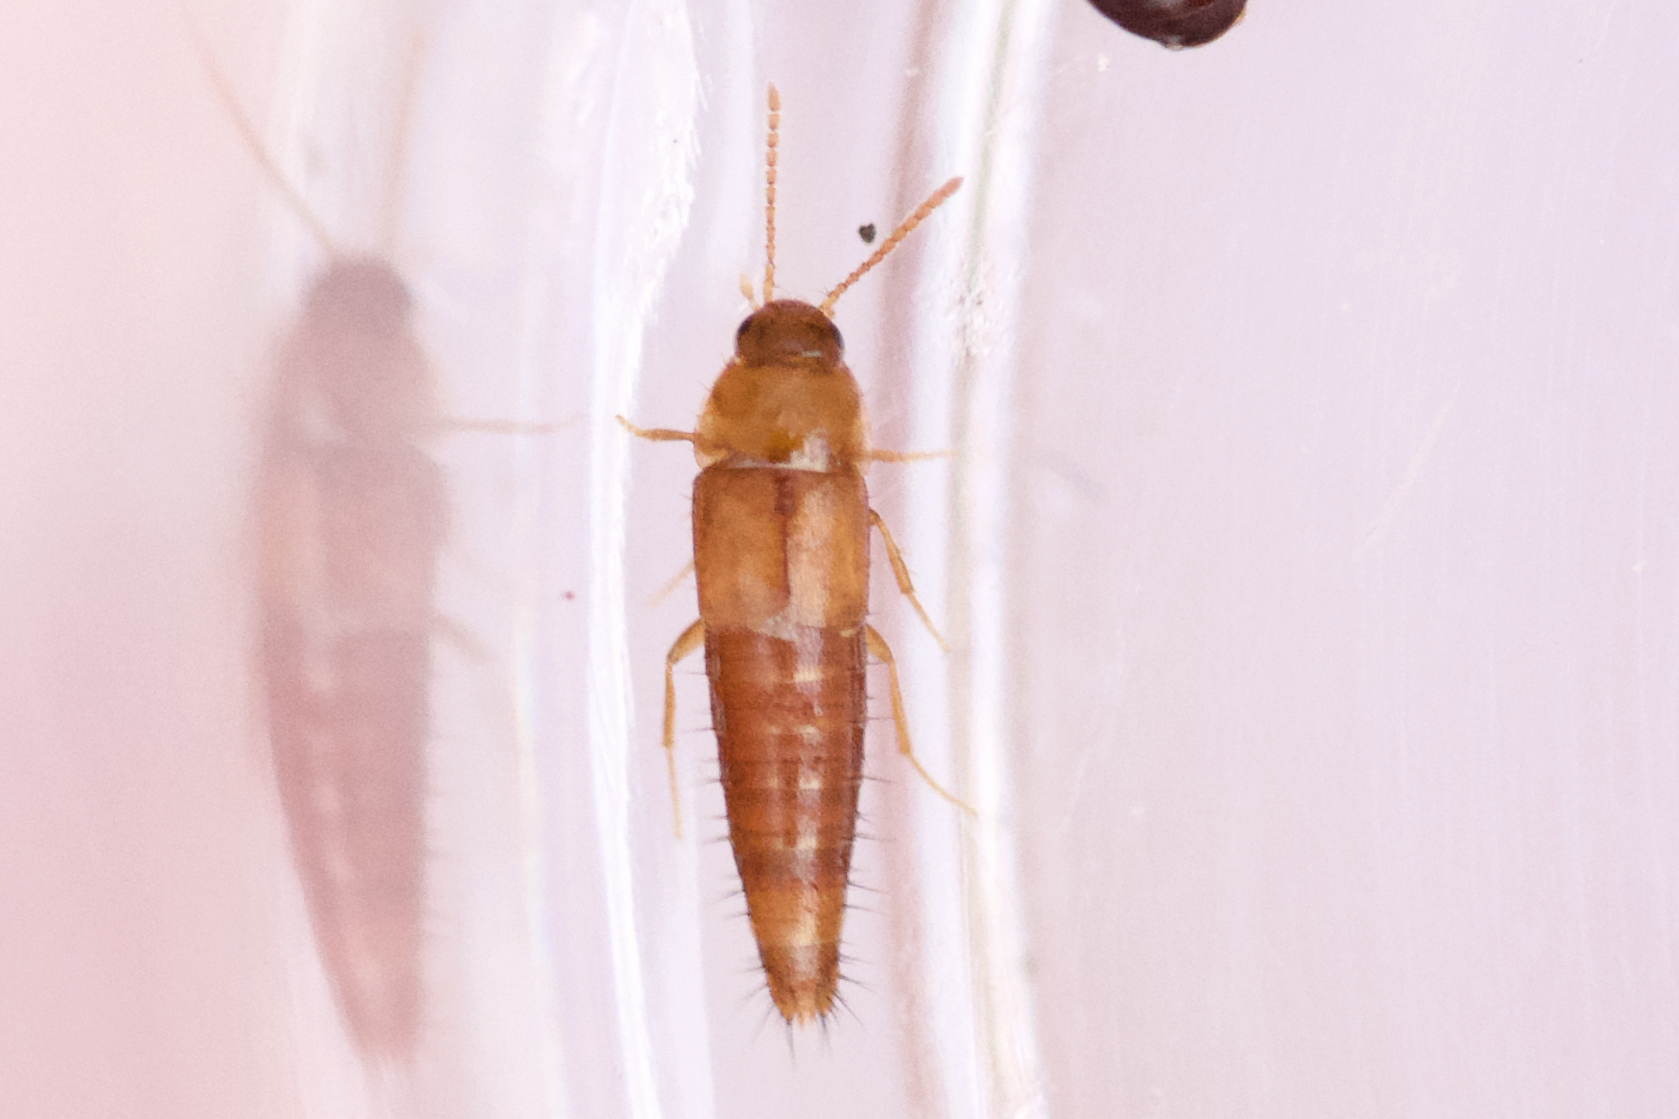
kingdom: Animalia
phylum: Arthropoda
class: Insecta
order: Coleoptera
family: Staphylinidae
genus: Palporus
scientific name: Palporus nitidulus
